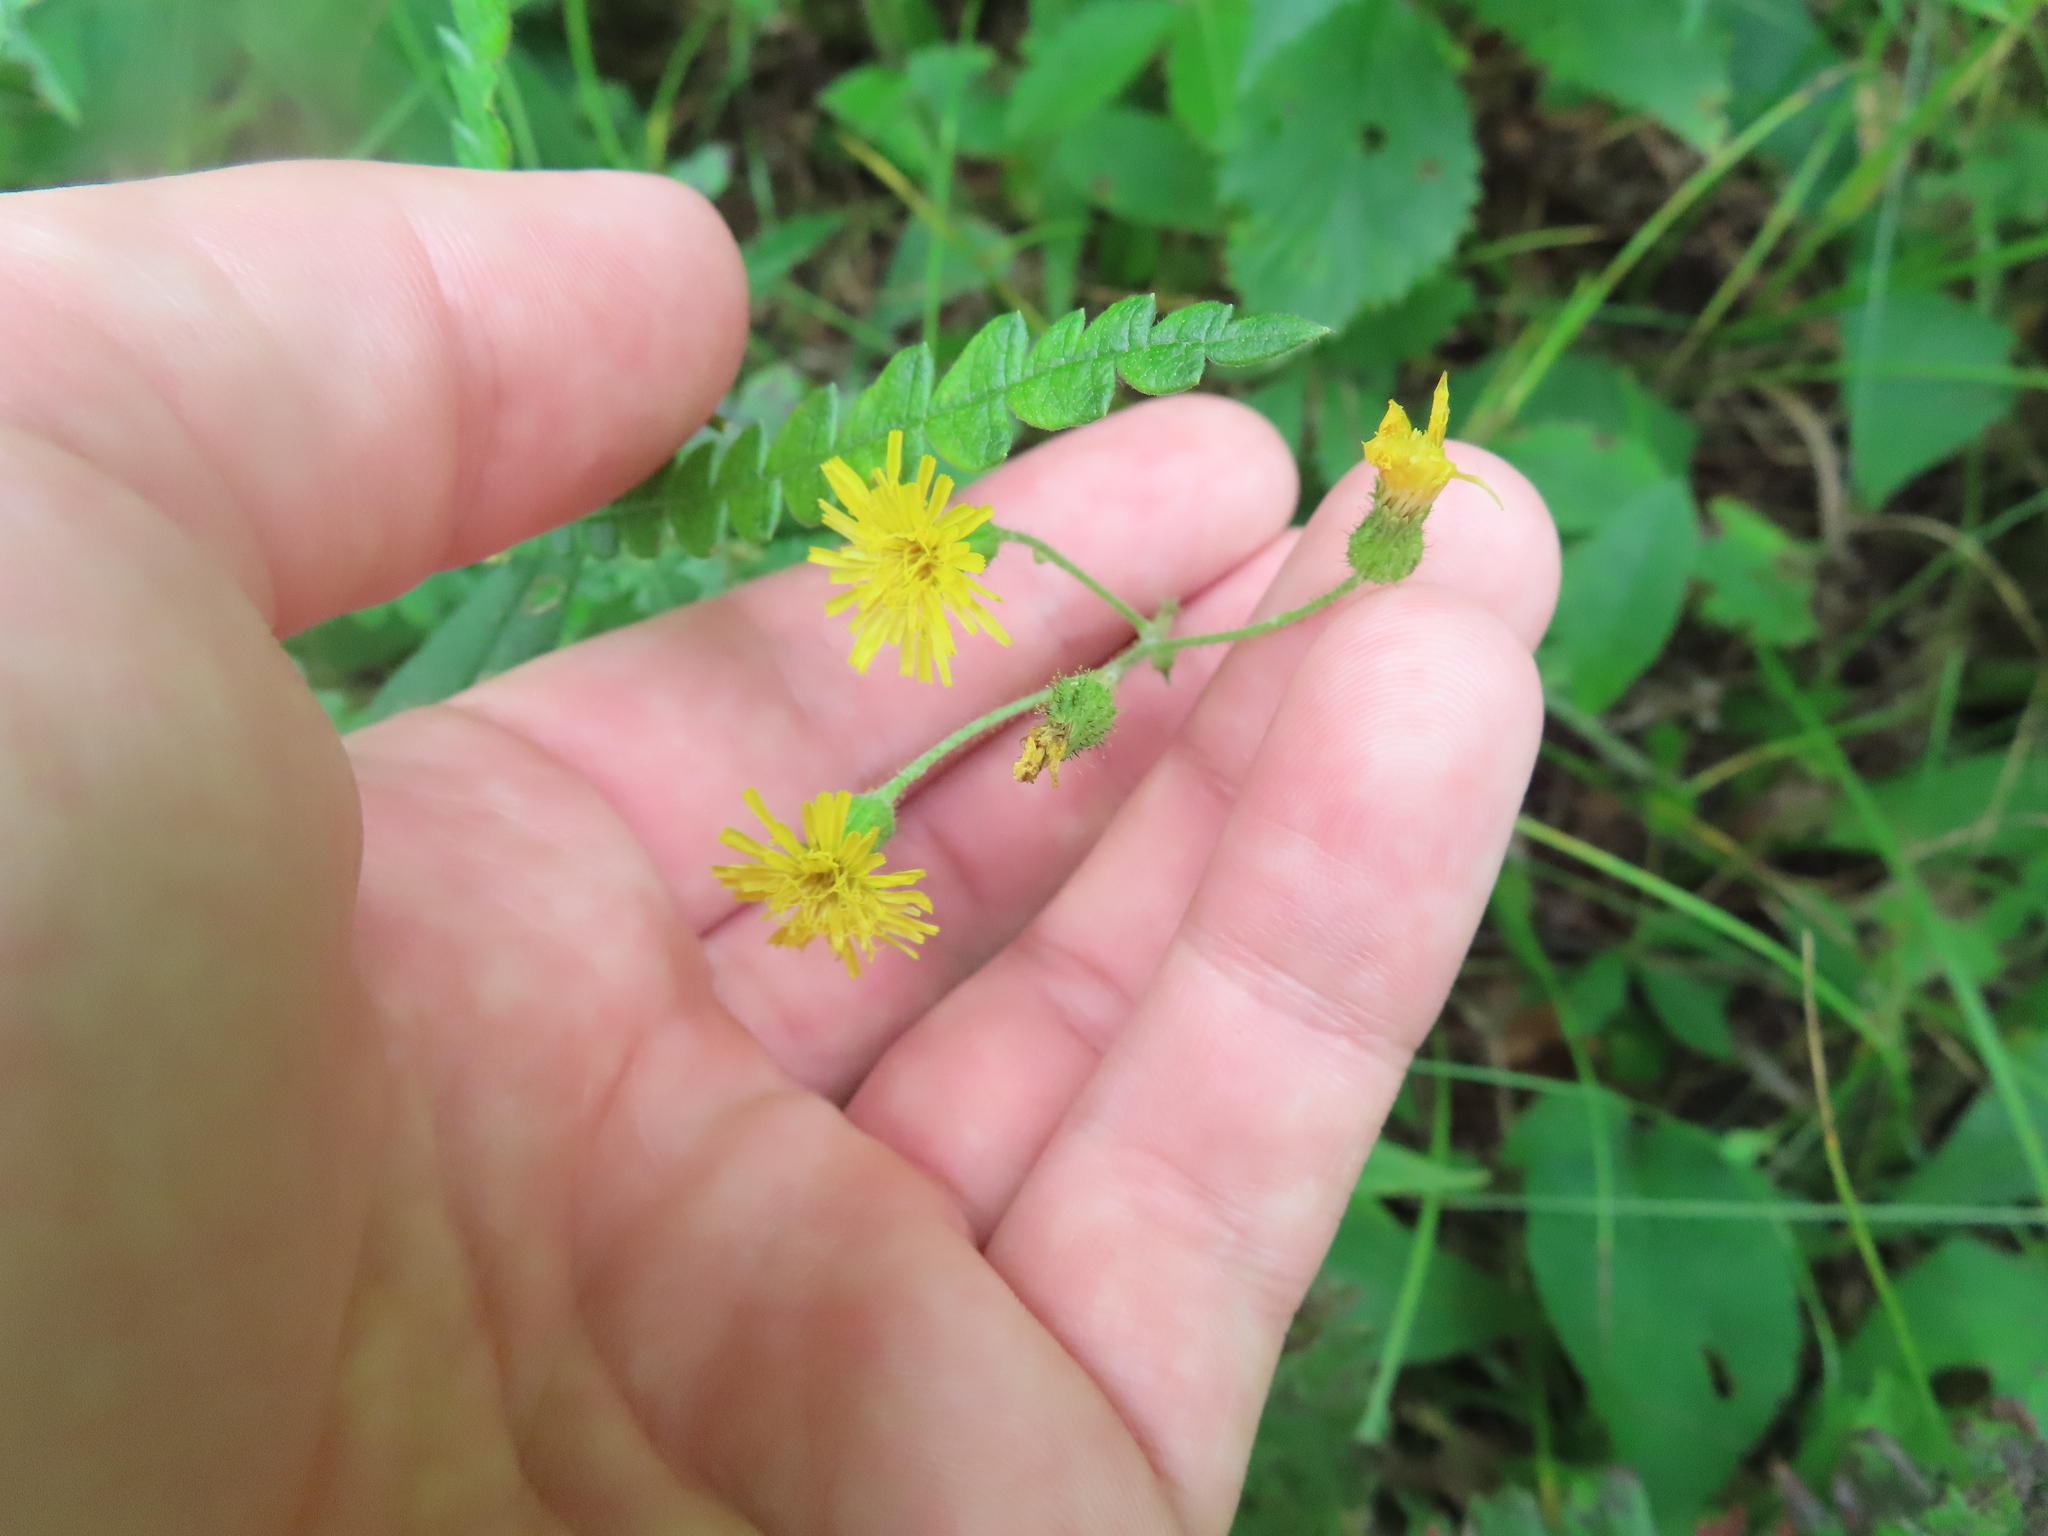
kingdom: Plantae
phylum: Tracheophyta
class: Magnoliopsida
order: Asterales
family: Asteraceae
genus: Hieracium
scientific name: Hieracium scabrum
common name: Rough hawkweed
